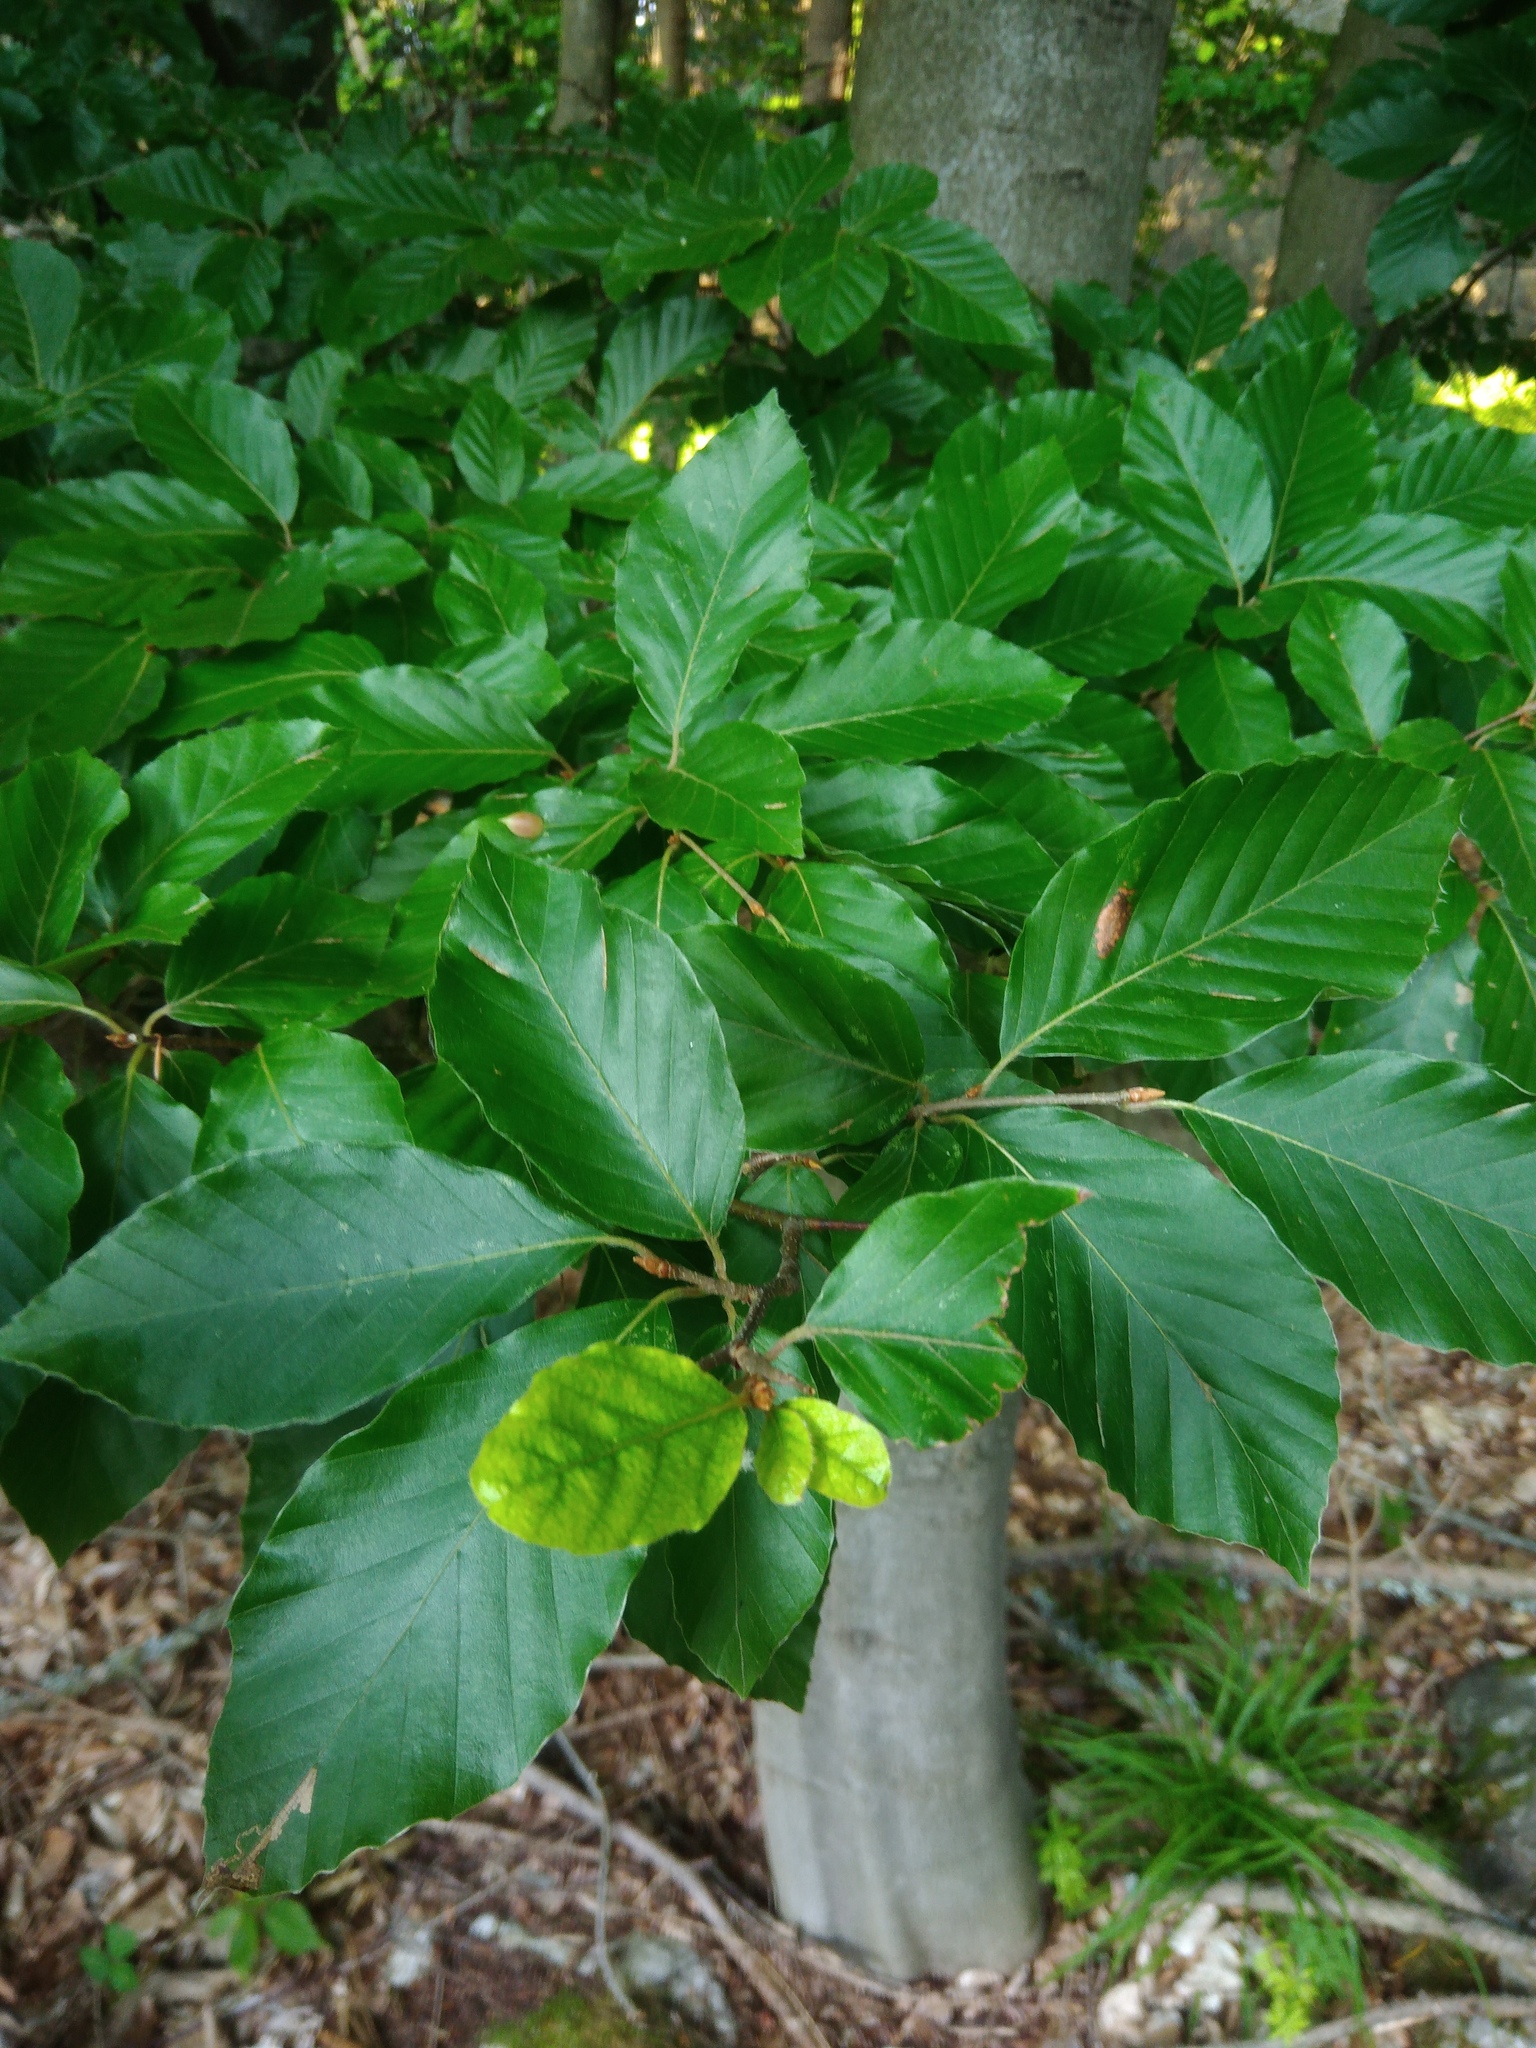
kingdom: Plantae
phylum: Tracheophyta
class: Magnoliopsida
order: Fagales
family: Fagaceae
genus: Fagus
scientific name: Fagus sylvatica
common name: Beech
